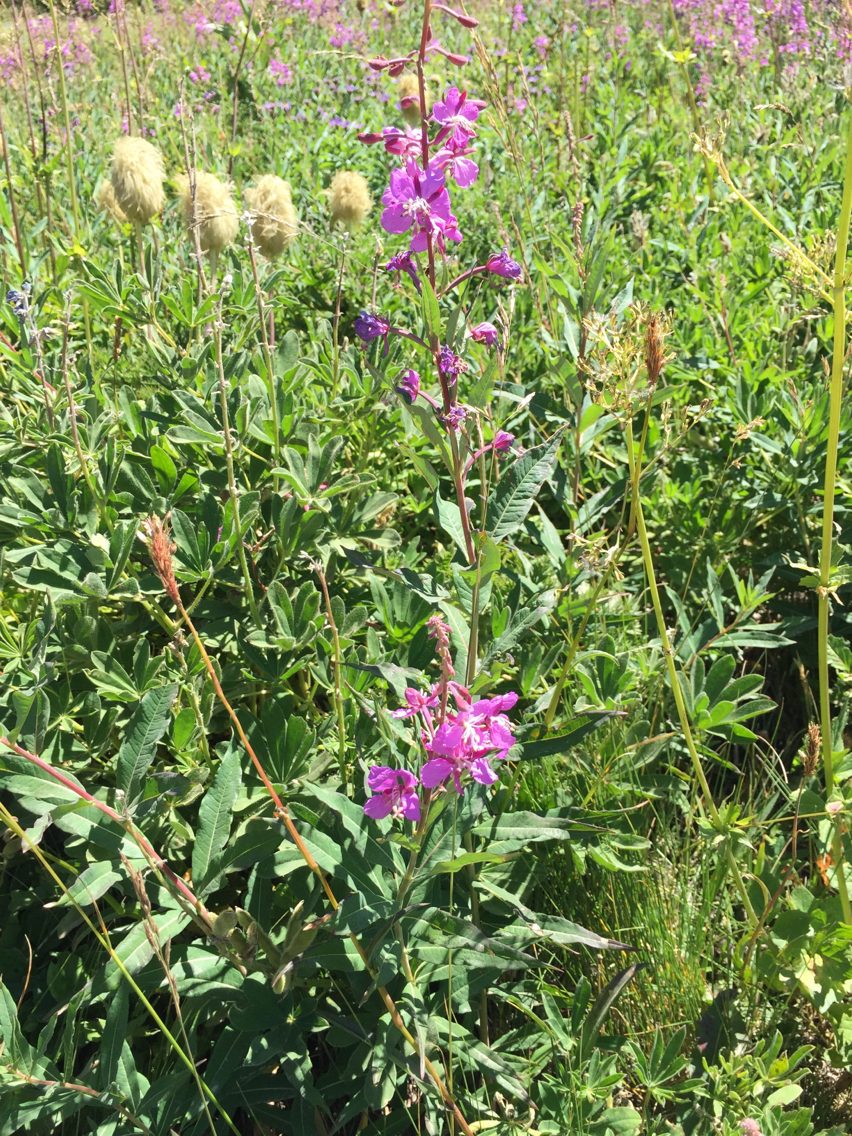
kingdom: Plantae
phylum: Tracheophyta
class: Magnoliopsida
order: Myrtales
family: Onagraceae
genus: Chamaenerion
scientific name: Chamaenerion angustifolium
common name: Fireweed
